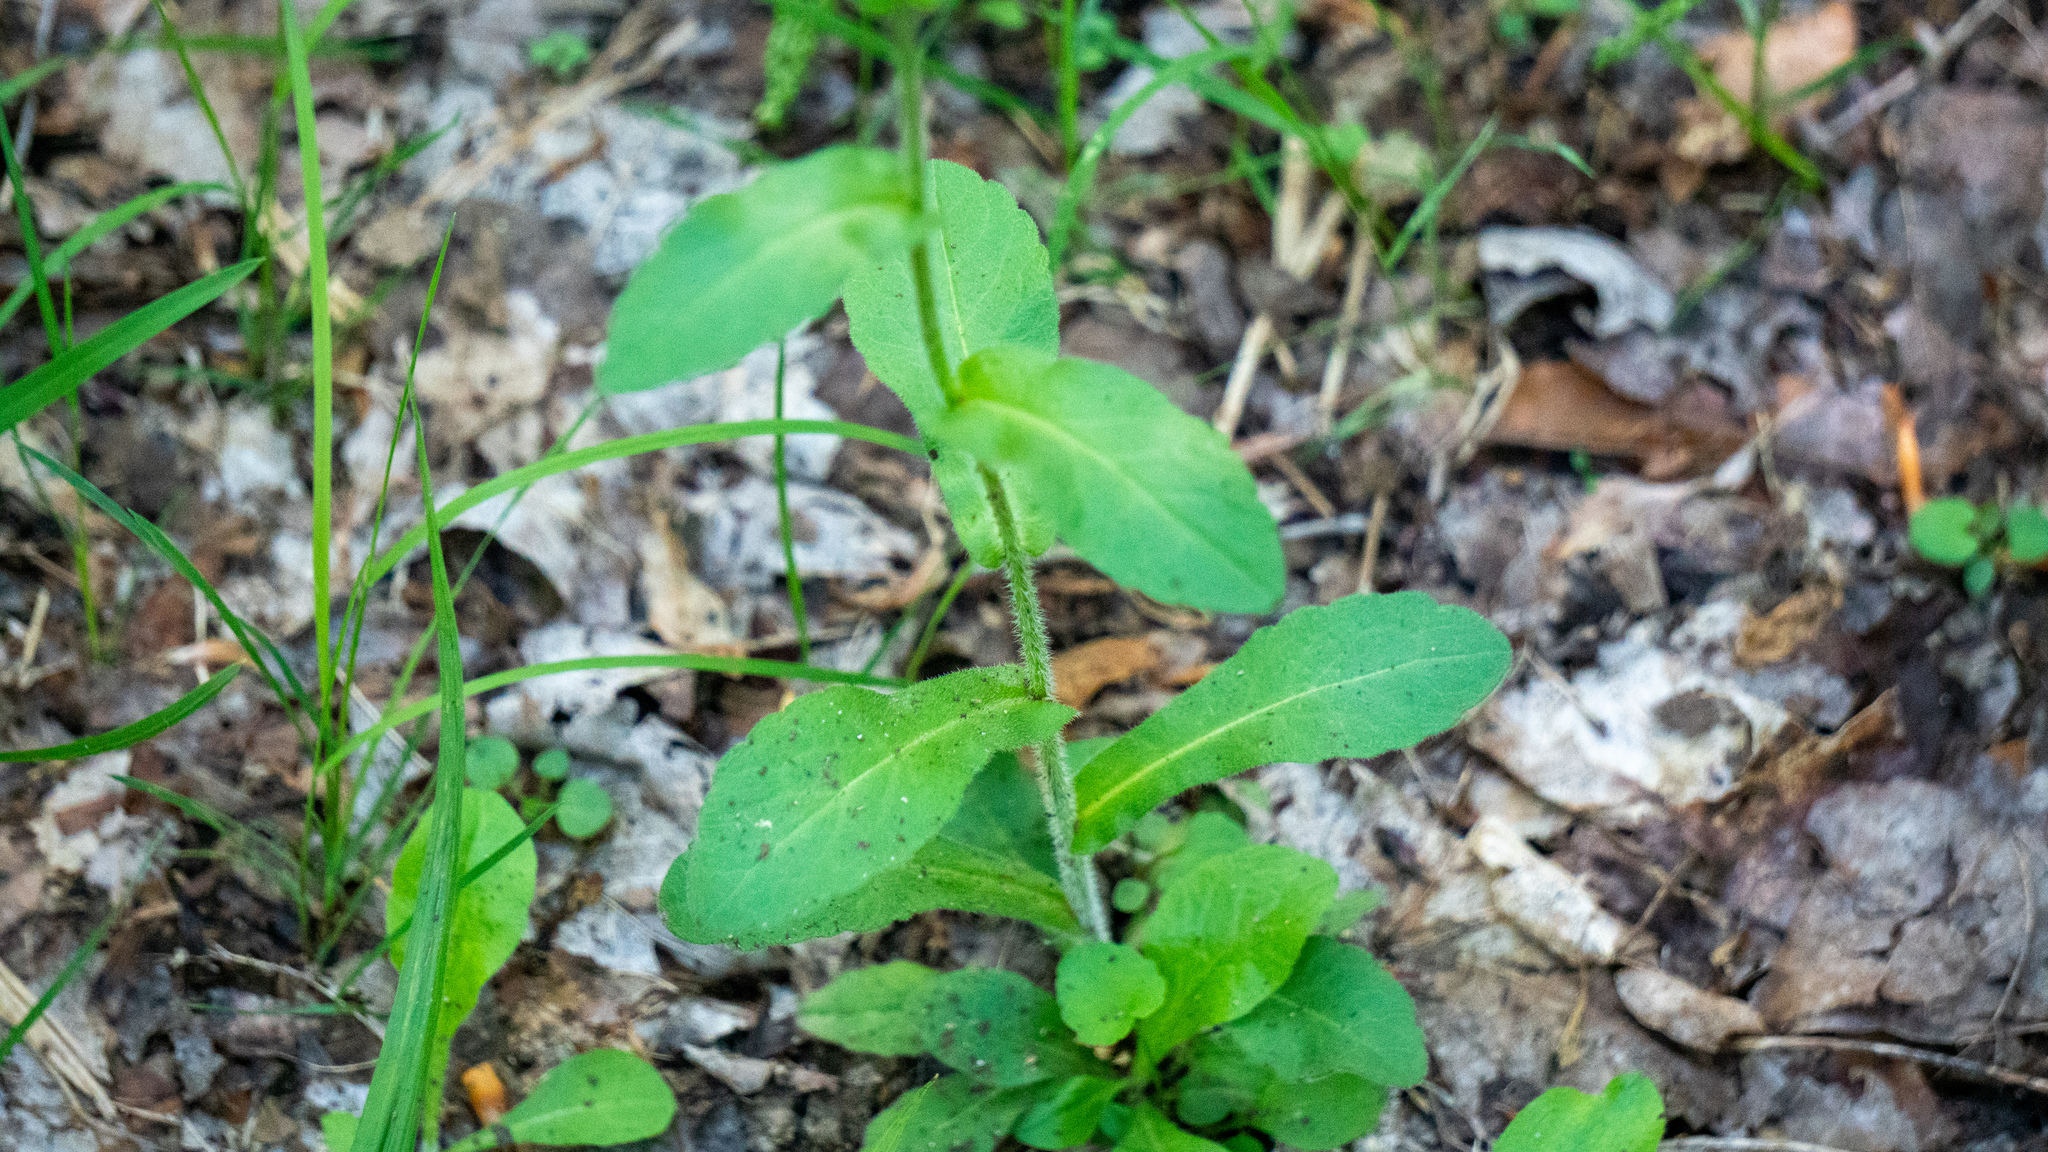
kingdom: Plantae
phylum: Tracheophyta
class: Magnoliopsida
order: Asterales
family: Asteraceae
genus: Erigeron
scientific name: Erigeron philadelphicus
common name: Robin's-plantain
